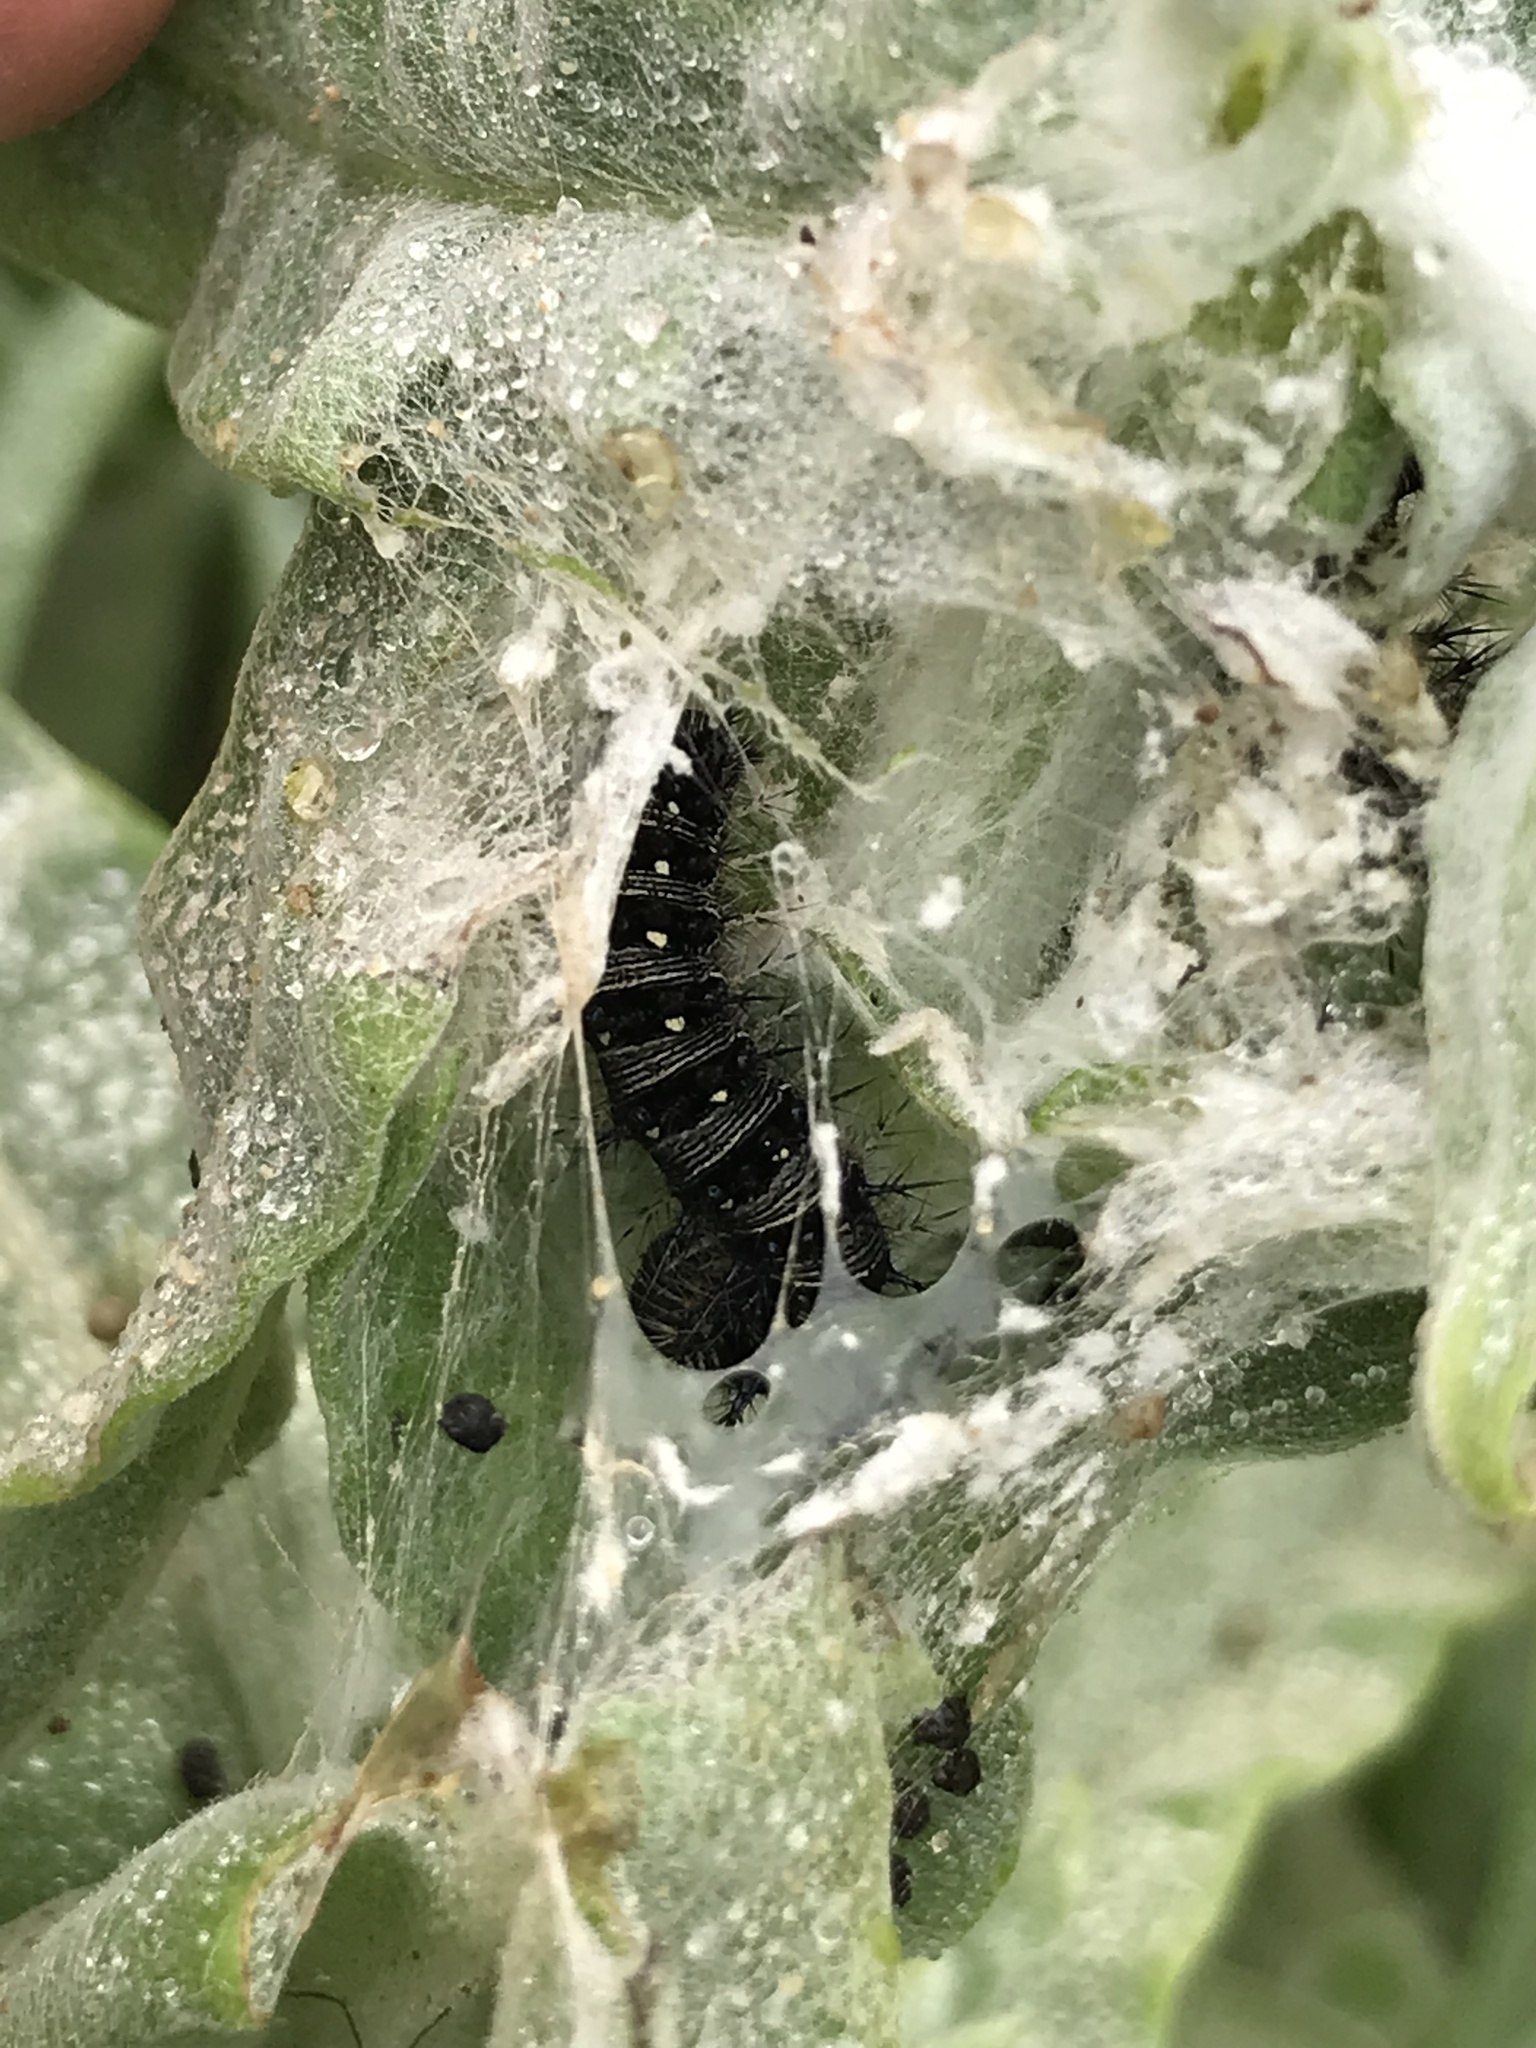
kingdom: Animalia
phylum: Arthropoda
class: Insecta
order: Lepidoptera
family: Nymphalidae
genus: Vanessa
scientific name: Vanessa virginiensis
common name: American lady
